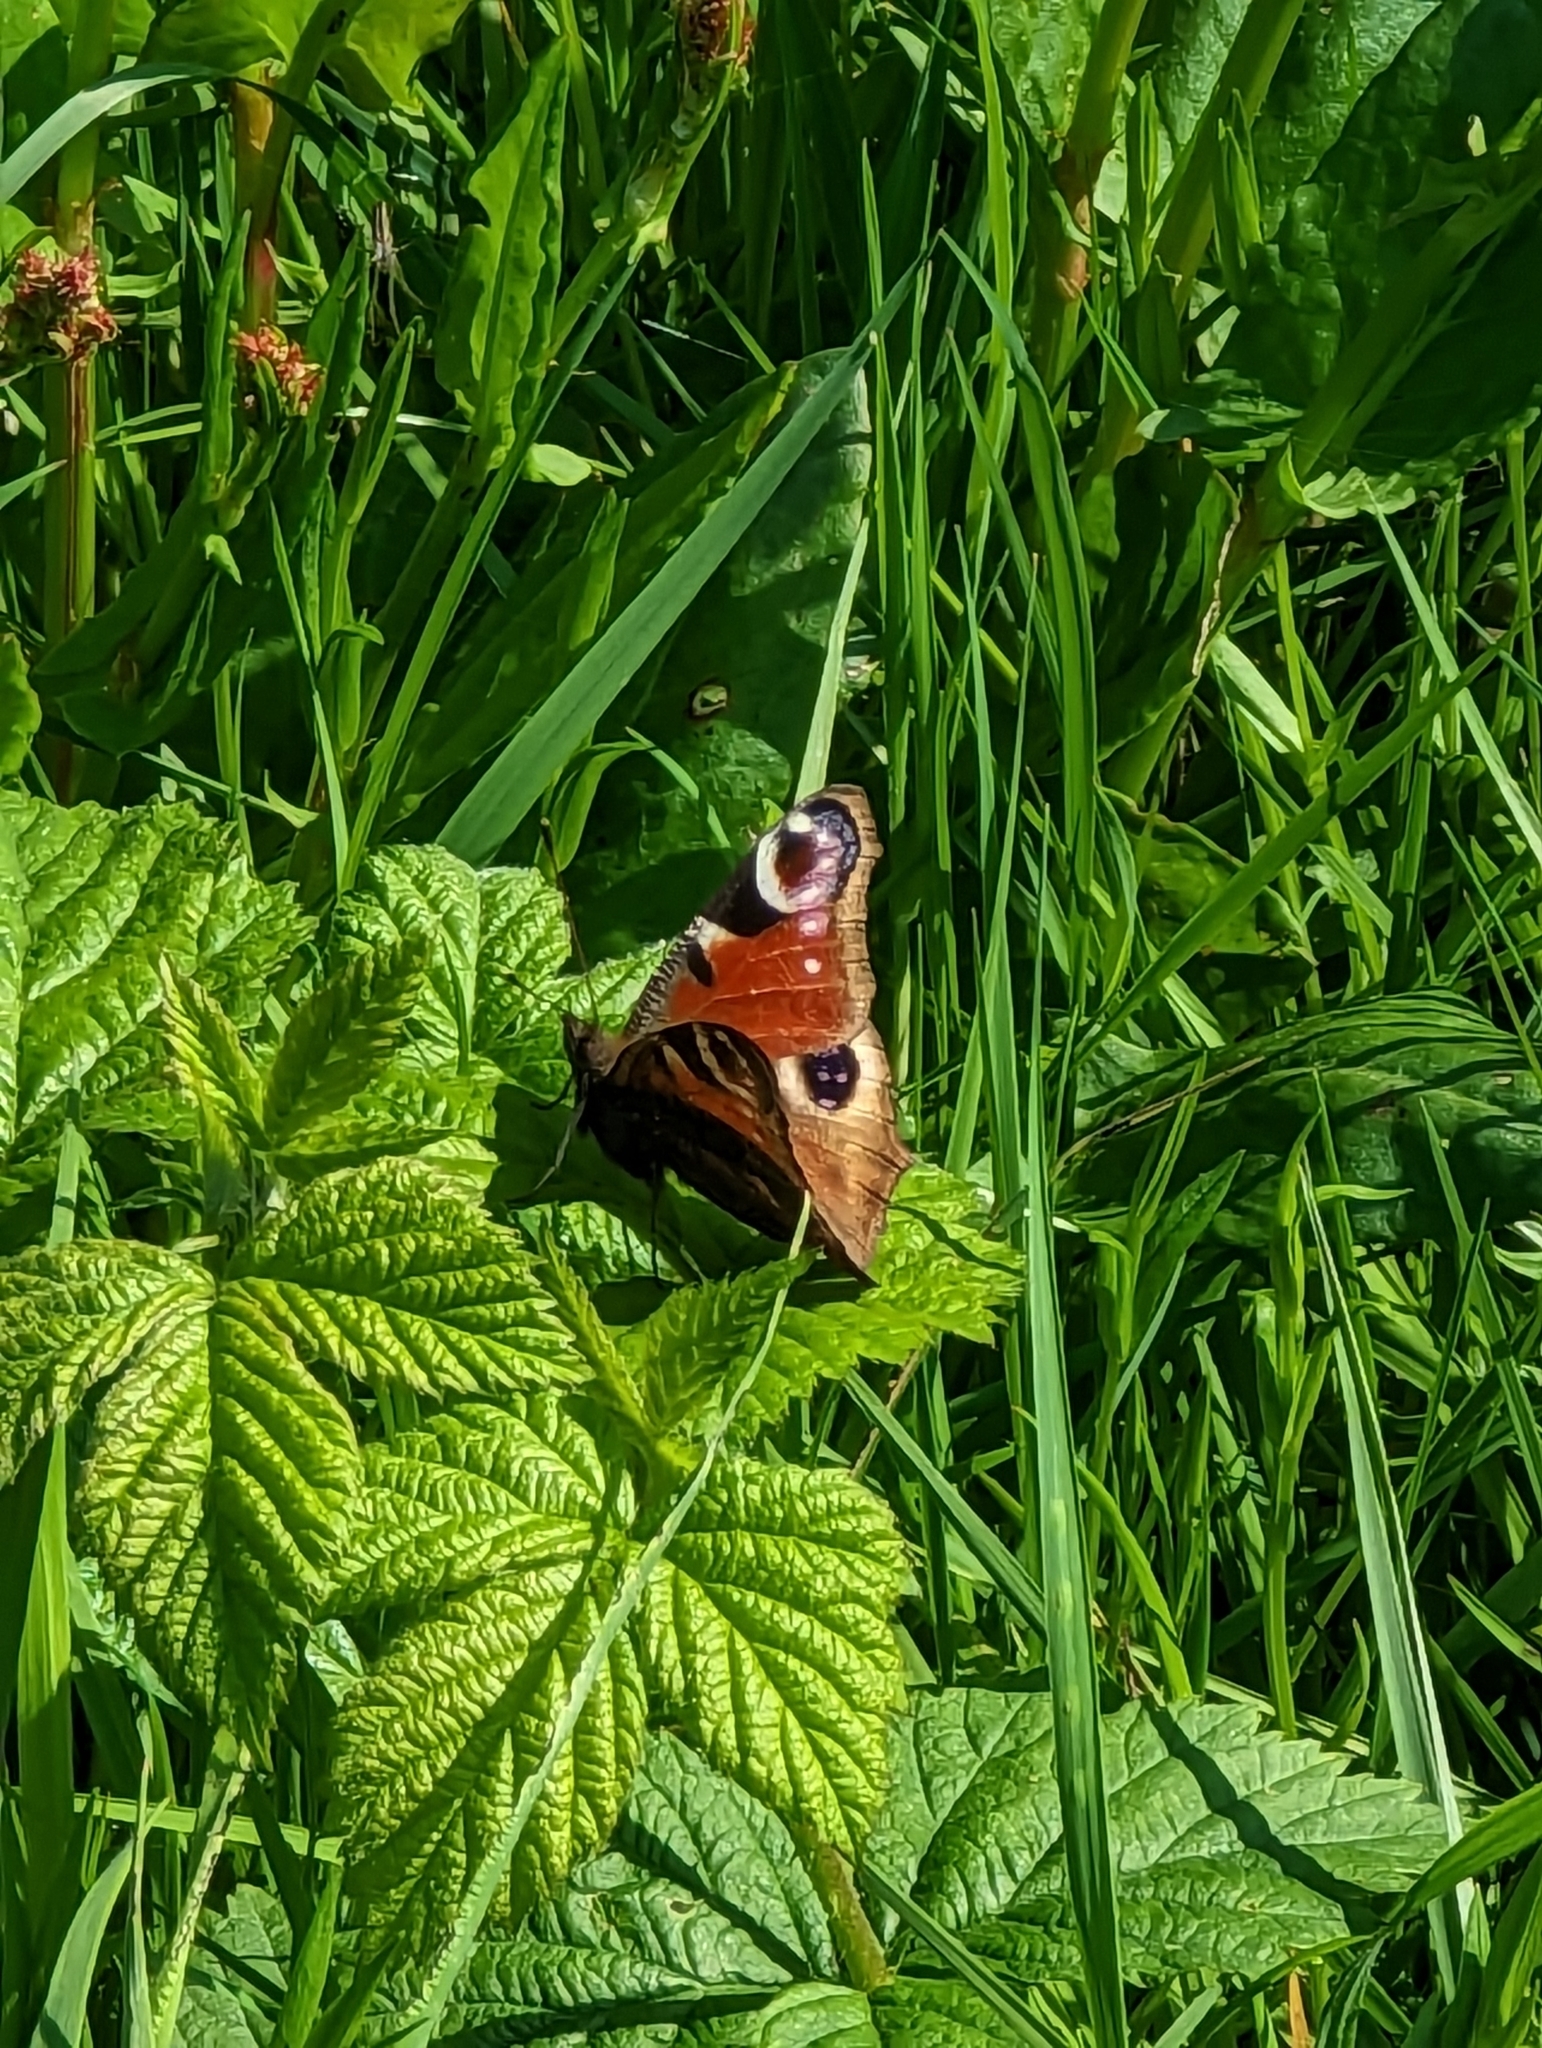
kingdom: Animalia
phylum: Arthropoda
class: Insecta
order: Lepidoptera
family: Nymphalidae
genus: Aglais
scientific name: Aglais io
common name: Peacock
